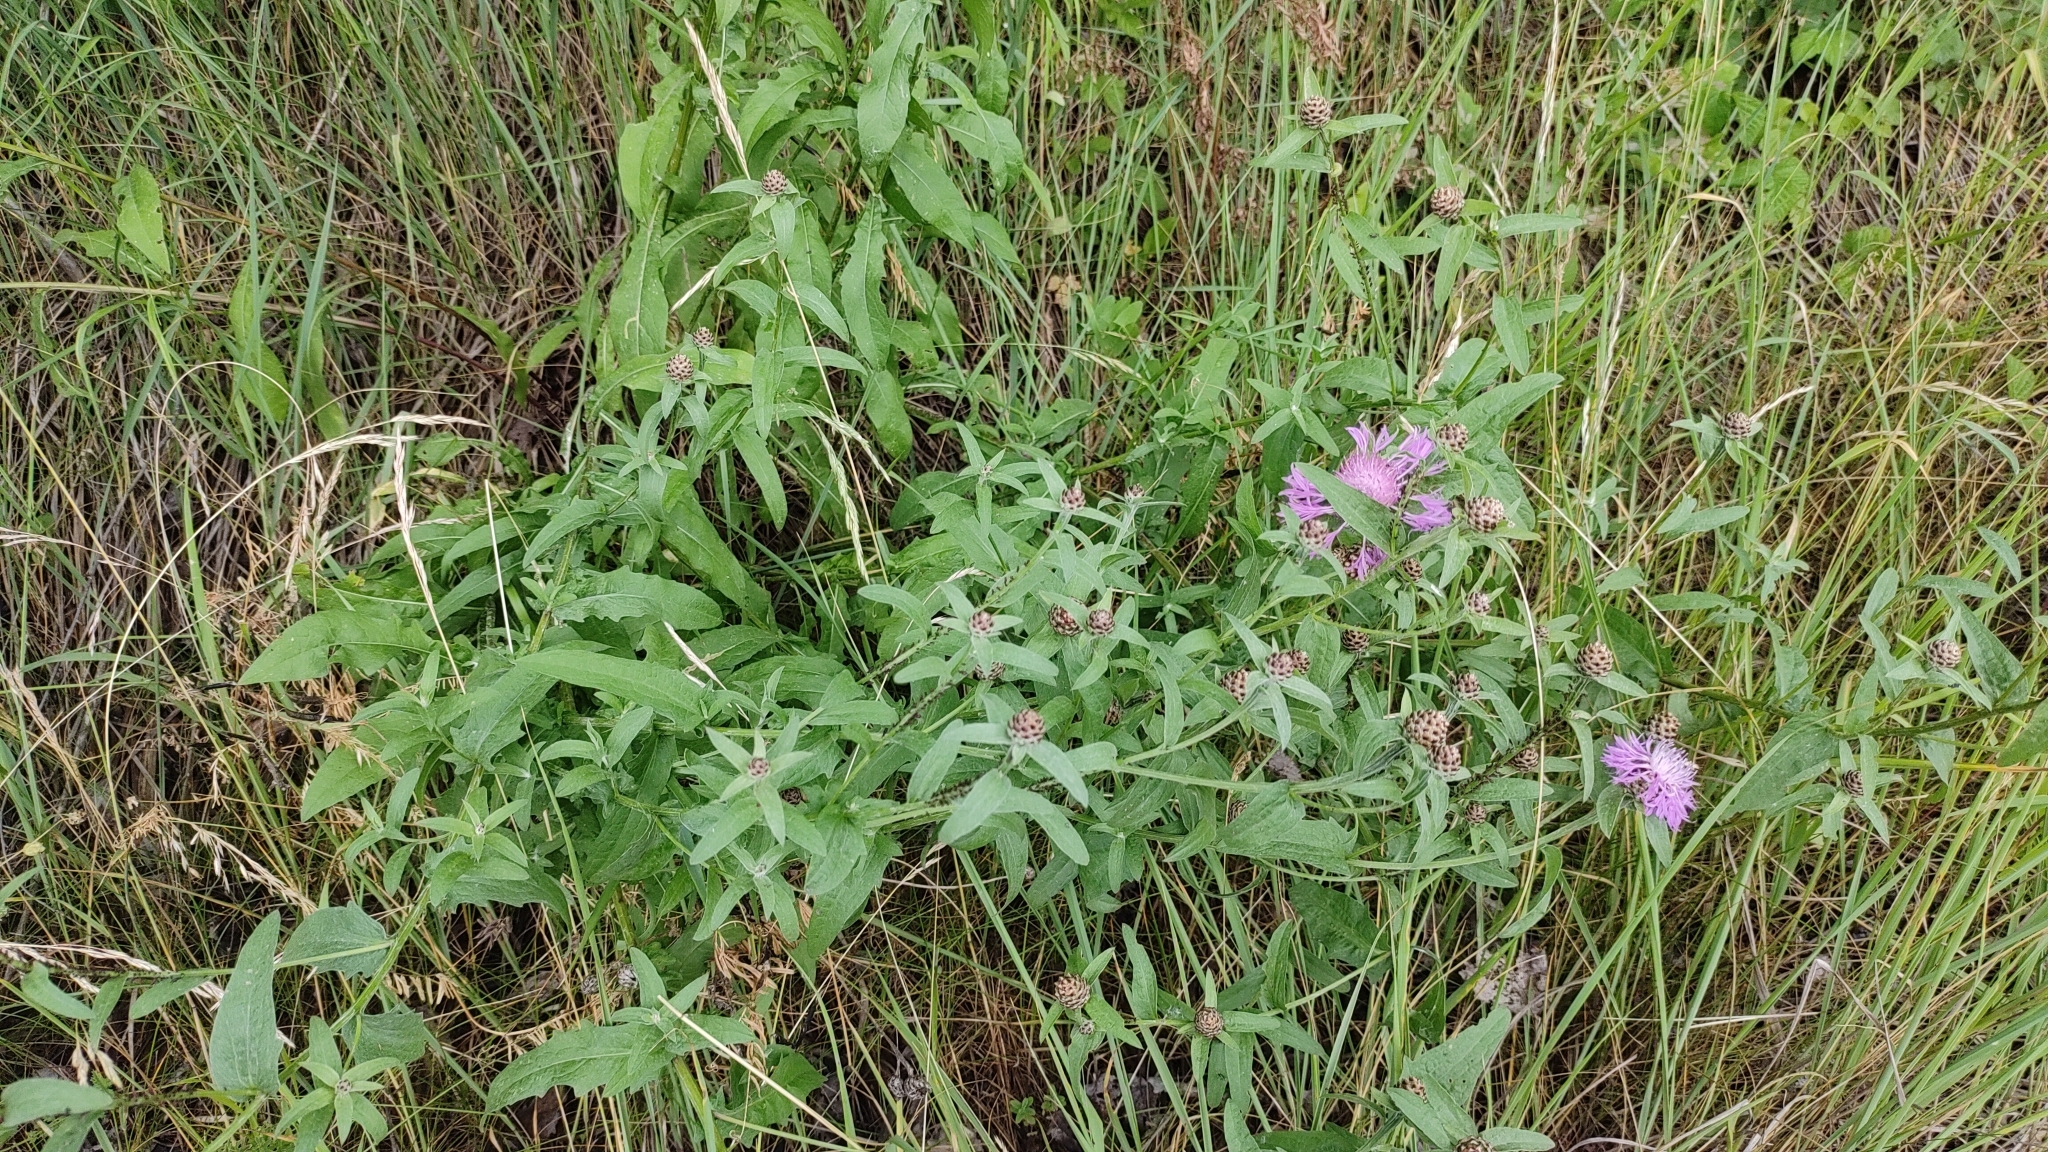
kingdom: Plantae
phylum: Tracheophyta
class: Magnoliopsida
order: Asterales
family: Asteraceae
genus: Centaurea
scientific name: Centaurea jacea
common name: Brown knapweed
